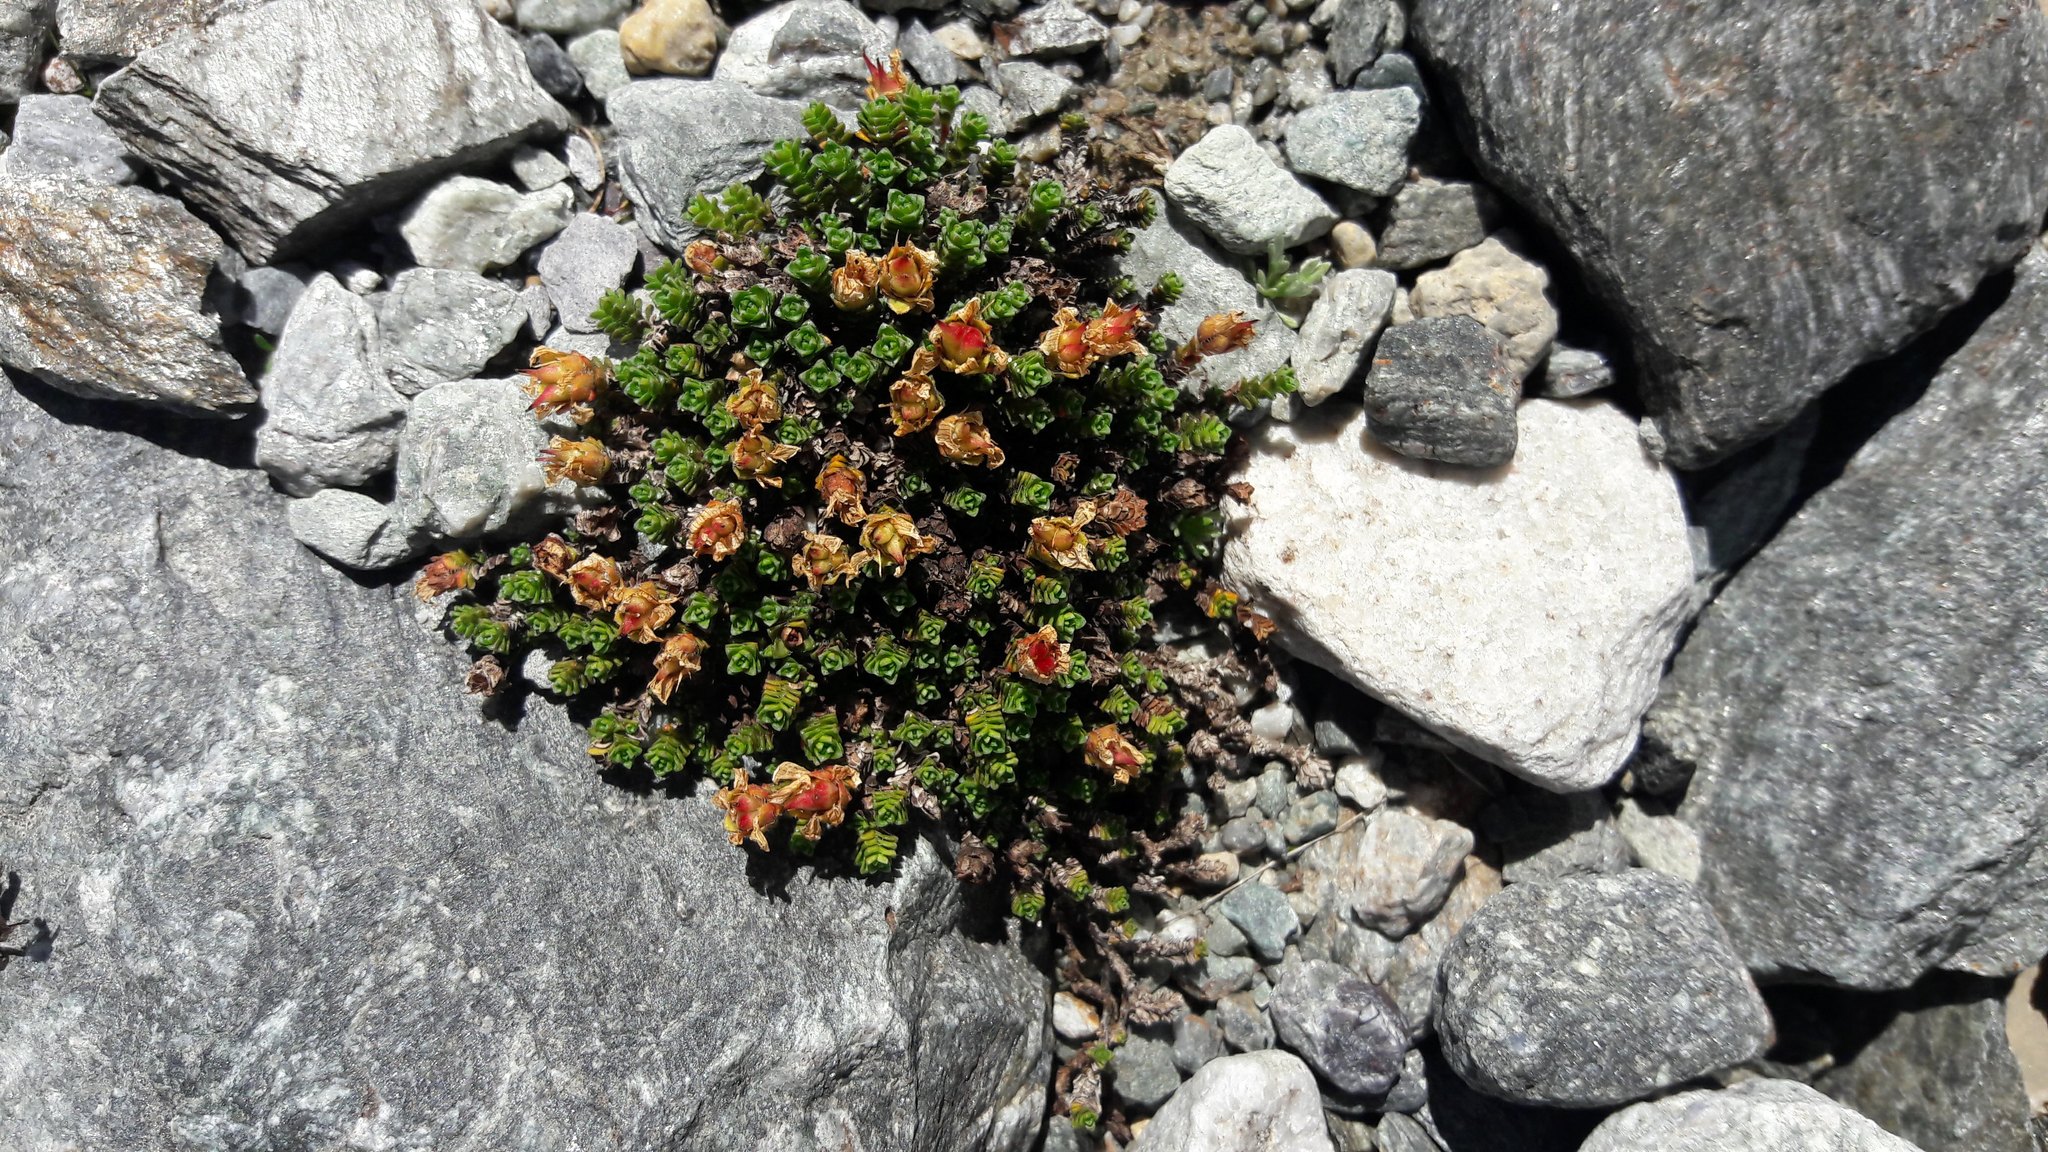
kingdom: Plantae
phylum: Tracheophyta
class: Magnoliopsida
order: Saxifragales
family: Saxifragaceae
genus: Saxifraga
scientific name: Saxifraga oppositifolia
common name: Purple saxifrage
